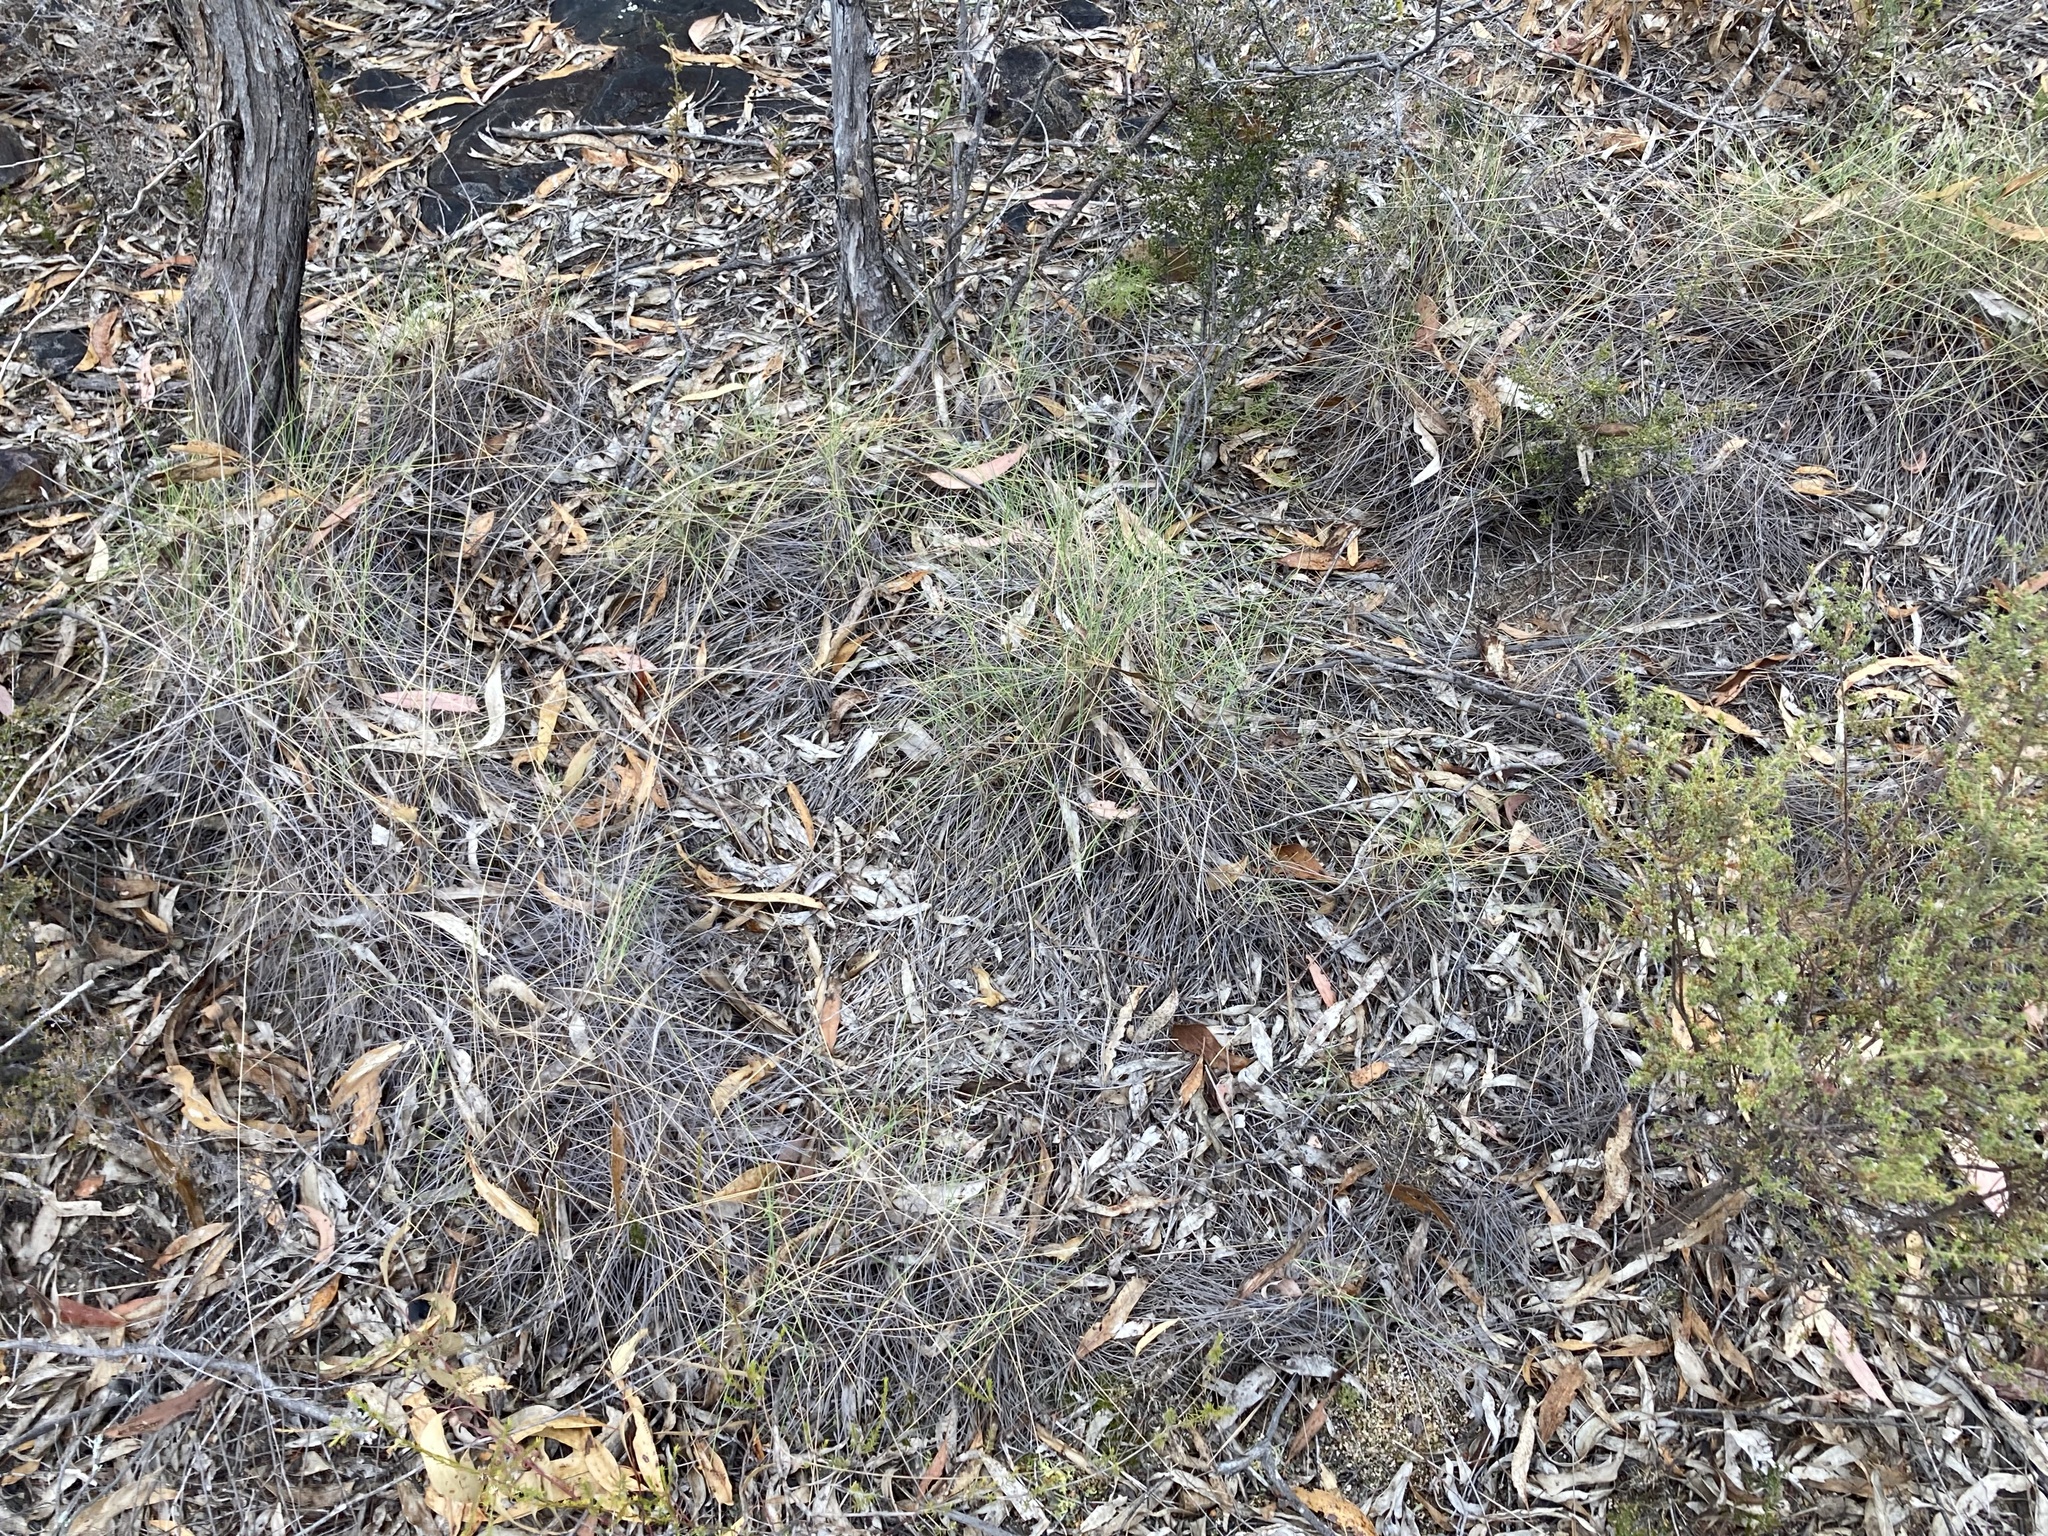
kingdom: Plantae
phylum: Tracheophyta
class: Liliopsida
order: Poales
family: Poaceae
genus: Triodia
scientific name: Triodia scariosa
